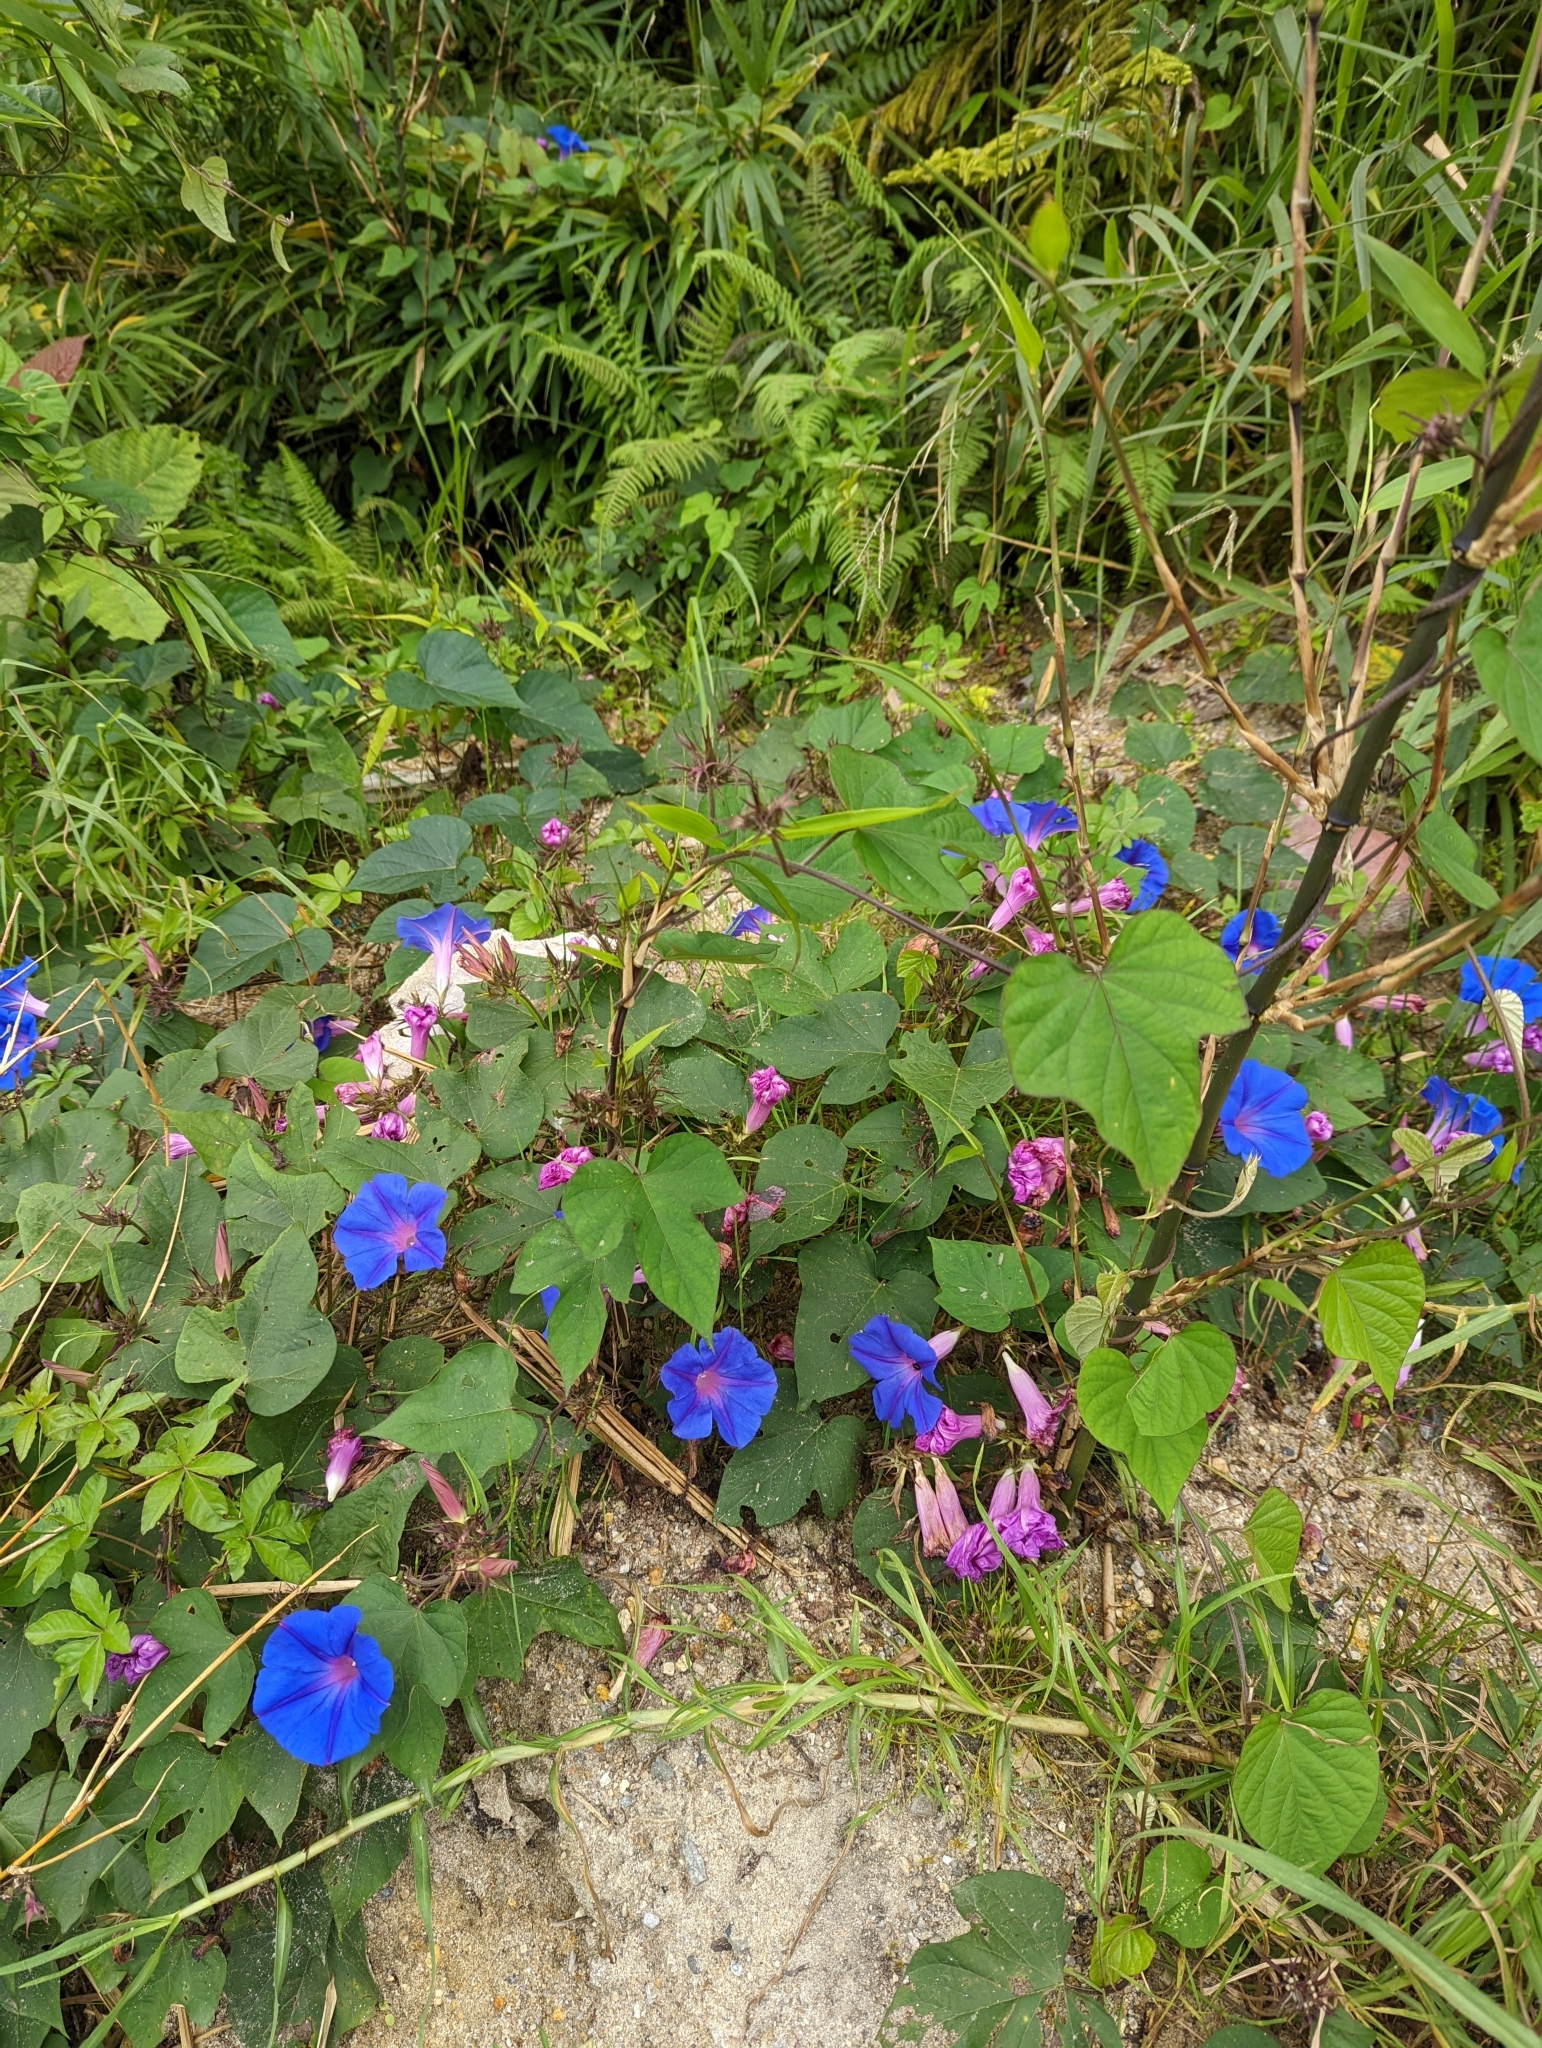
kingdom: Plantae
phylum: Tracheophyta
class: Magnoliopsida
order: Solanales
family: Convolvulaceae
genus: Ipomoea
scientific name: Ipomoea indica
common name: Blue dawnflower
